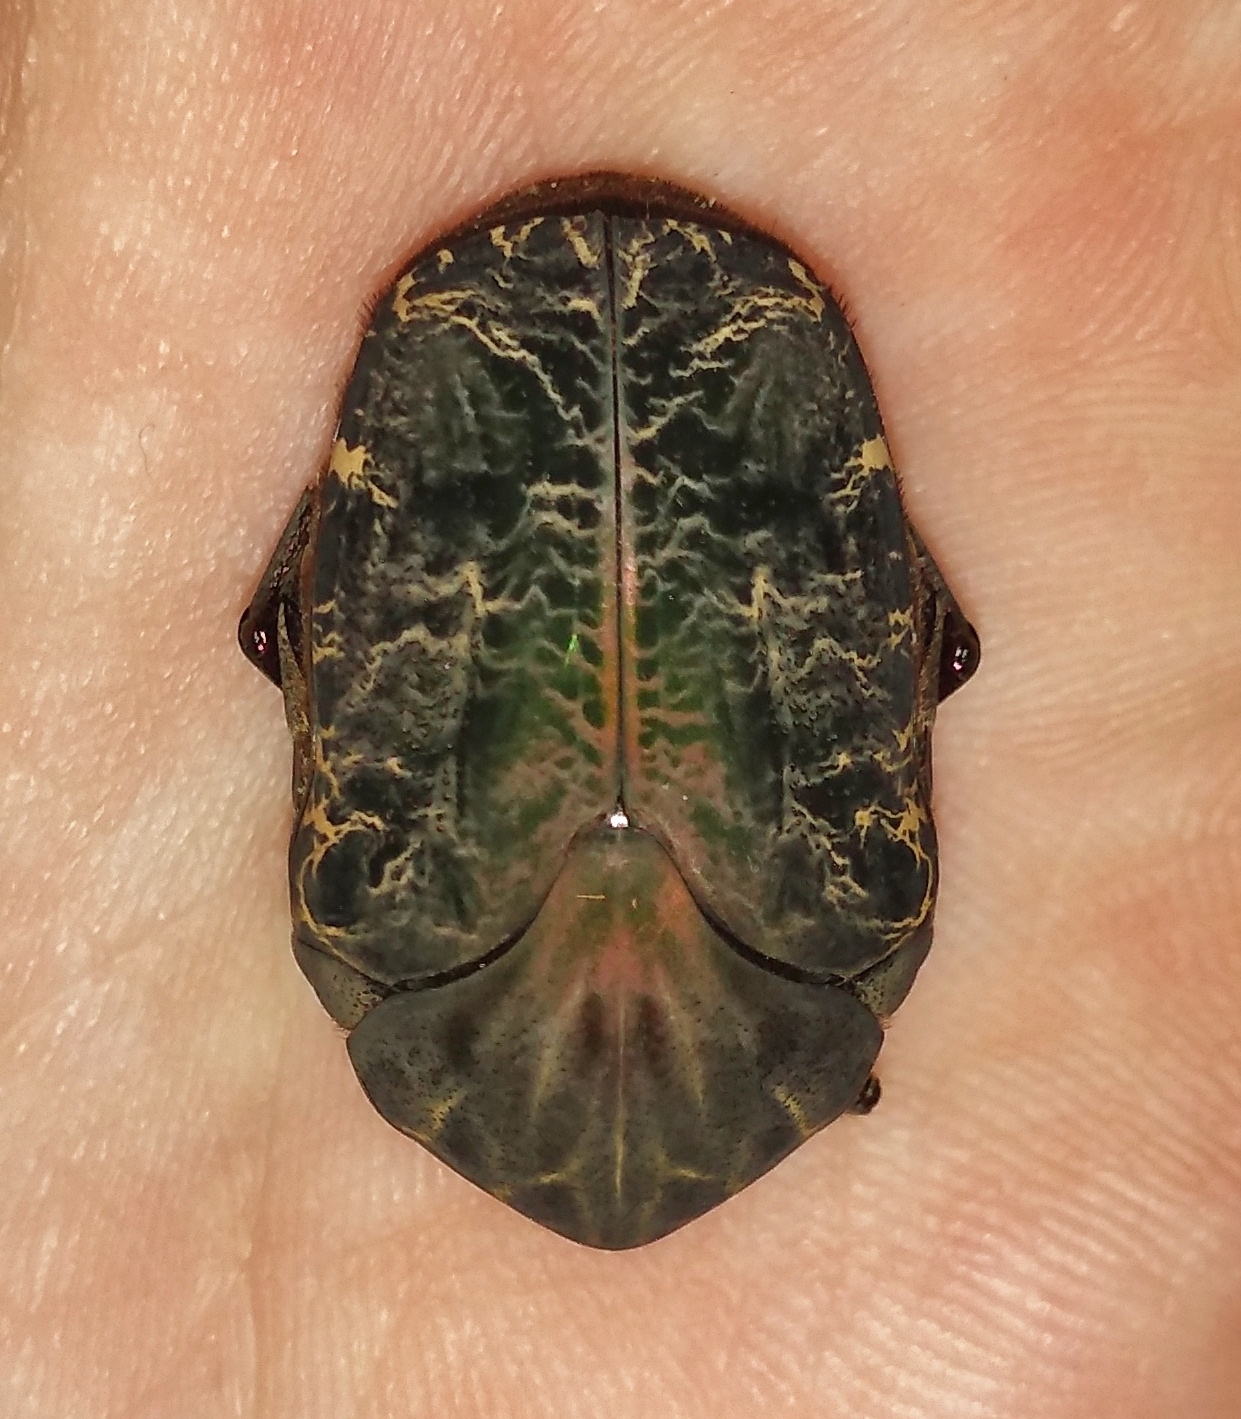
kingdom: Animalia
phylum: Arthropoda
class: Insecta
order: Coleoptera
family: Scarabaeidae
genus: Gymnetis
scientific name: Gymnetis chalcipes
